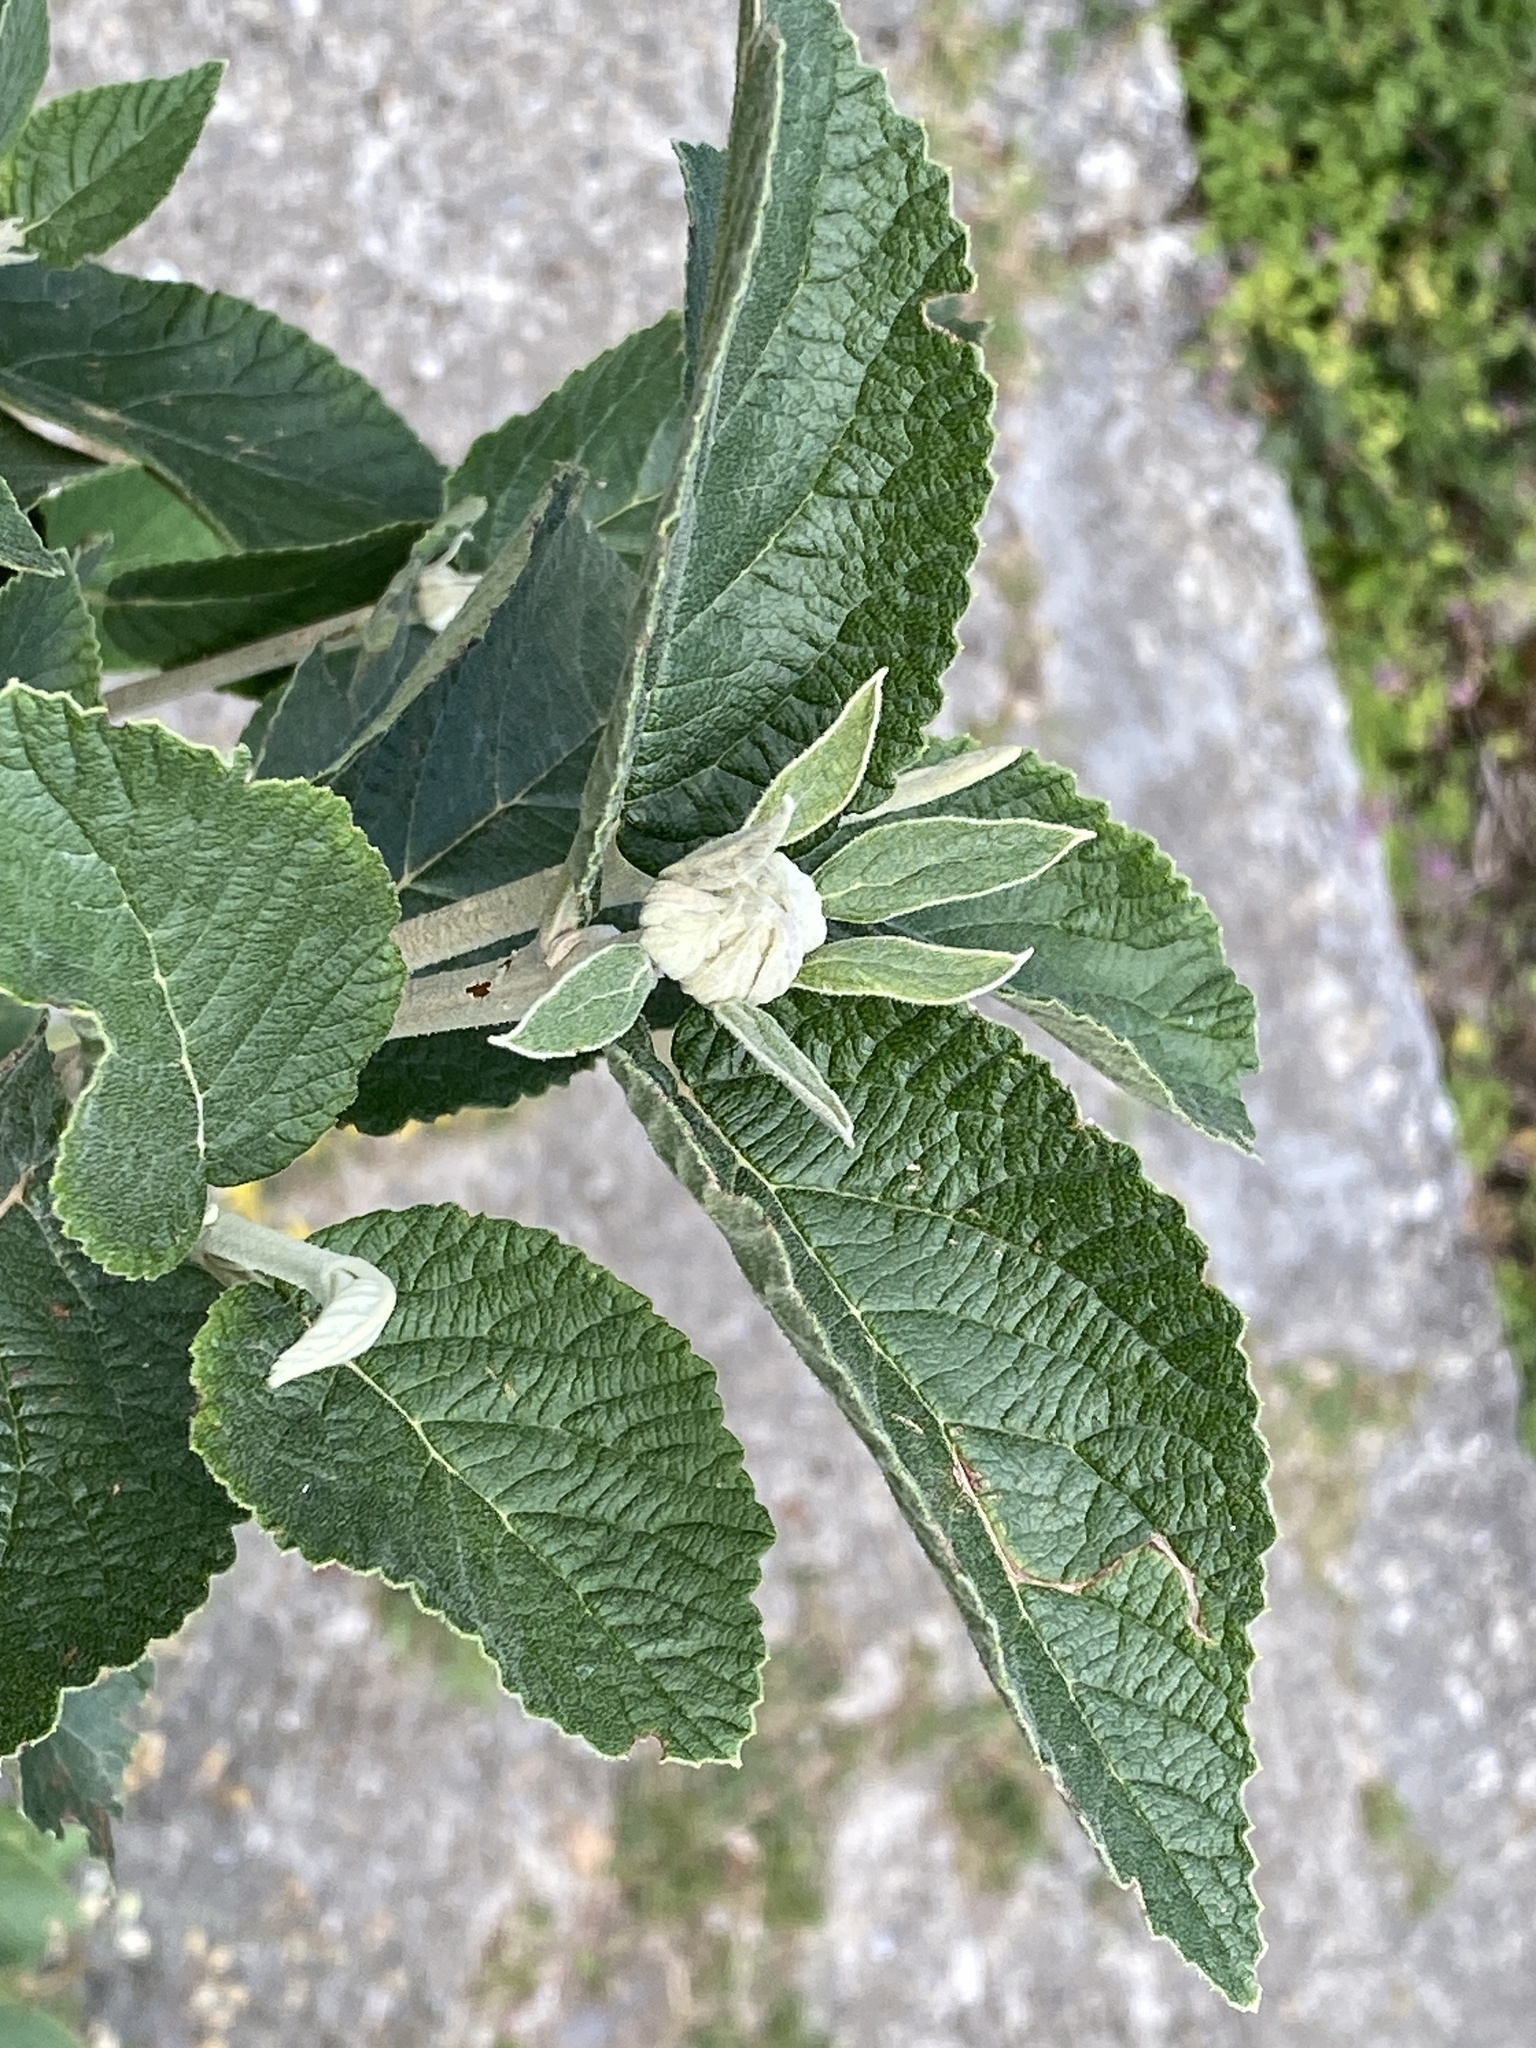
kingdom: Plantae
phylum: Tracheophyta
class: Magnoliopsida
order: Dipsacales
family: Viburnaceae
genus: Viburnum
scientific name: Viburnum lantana
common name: Wayfaring tree
